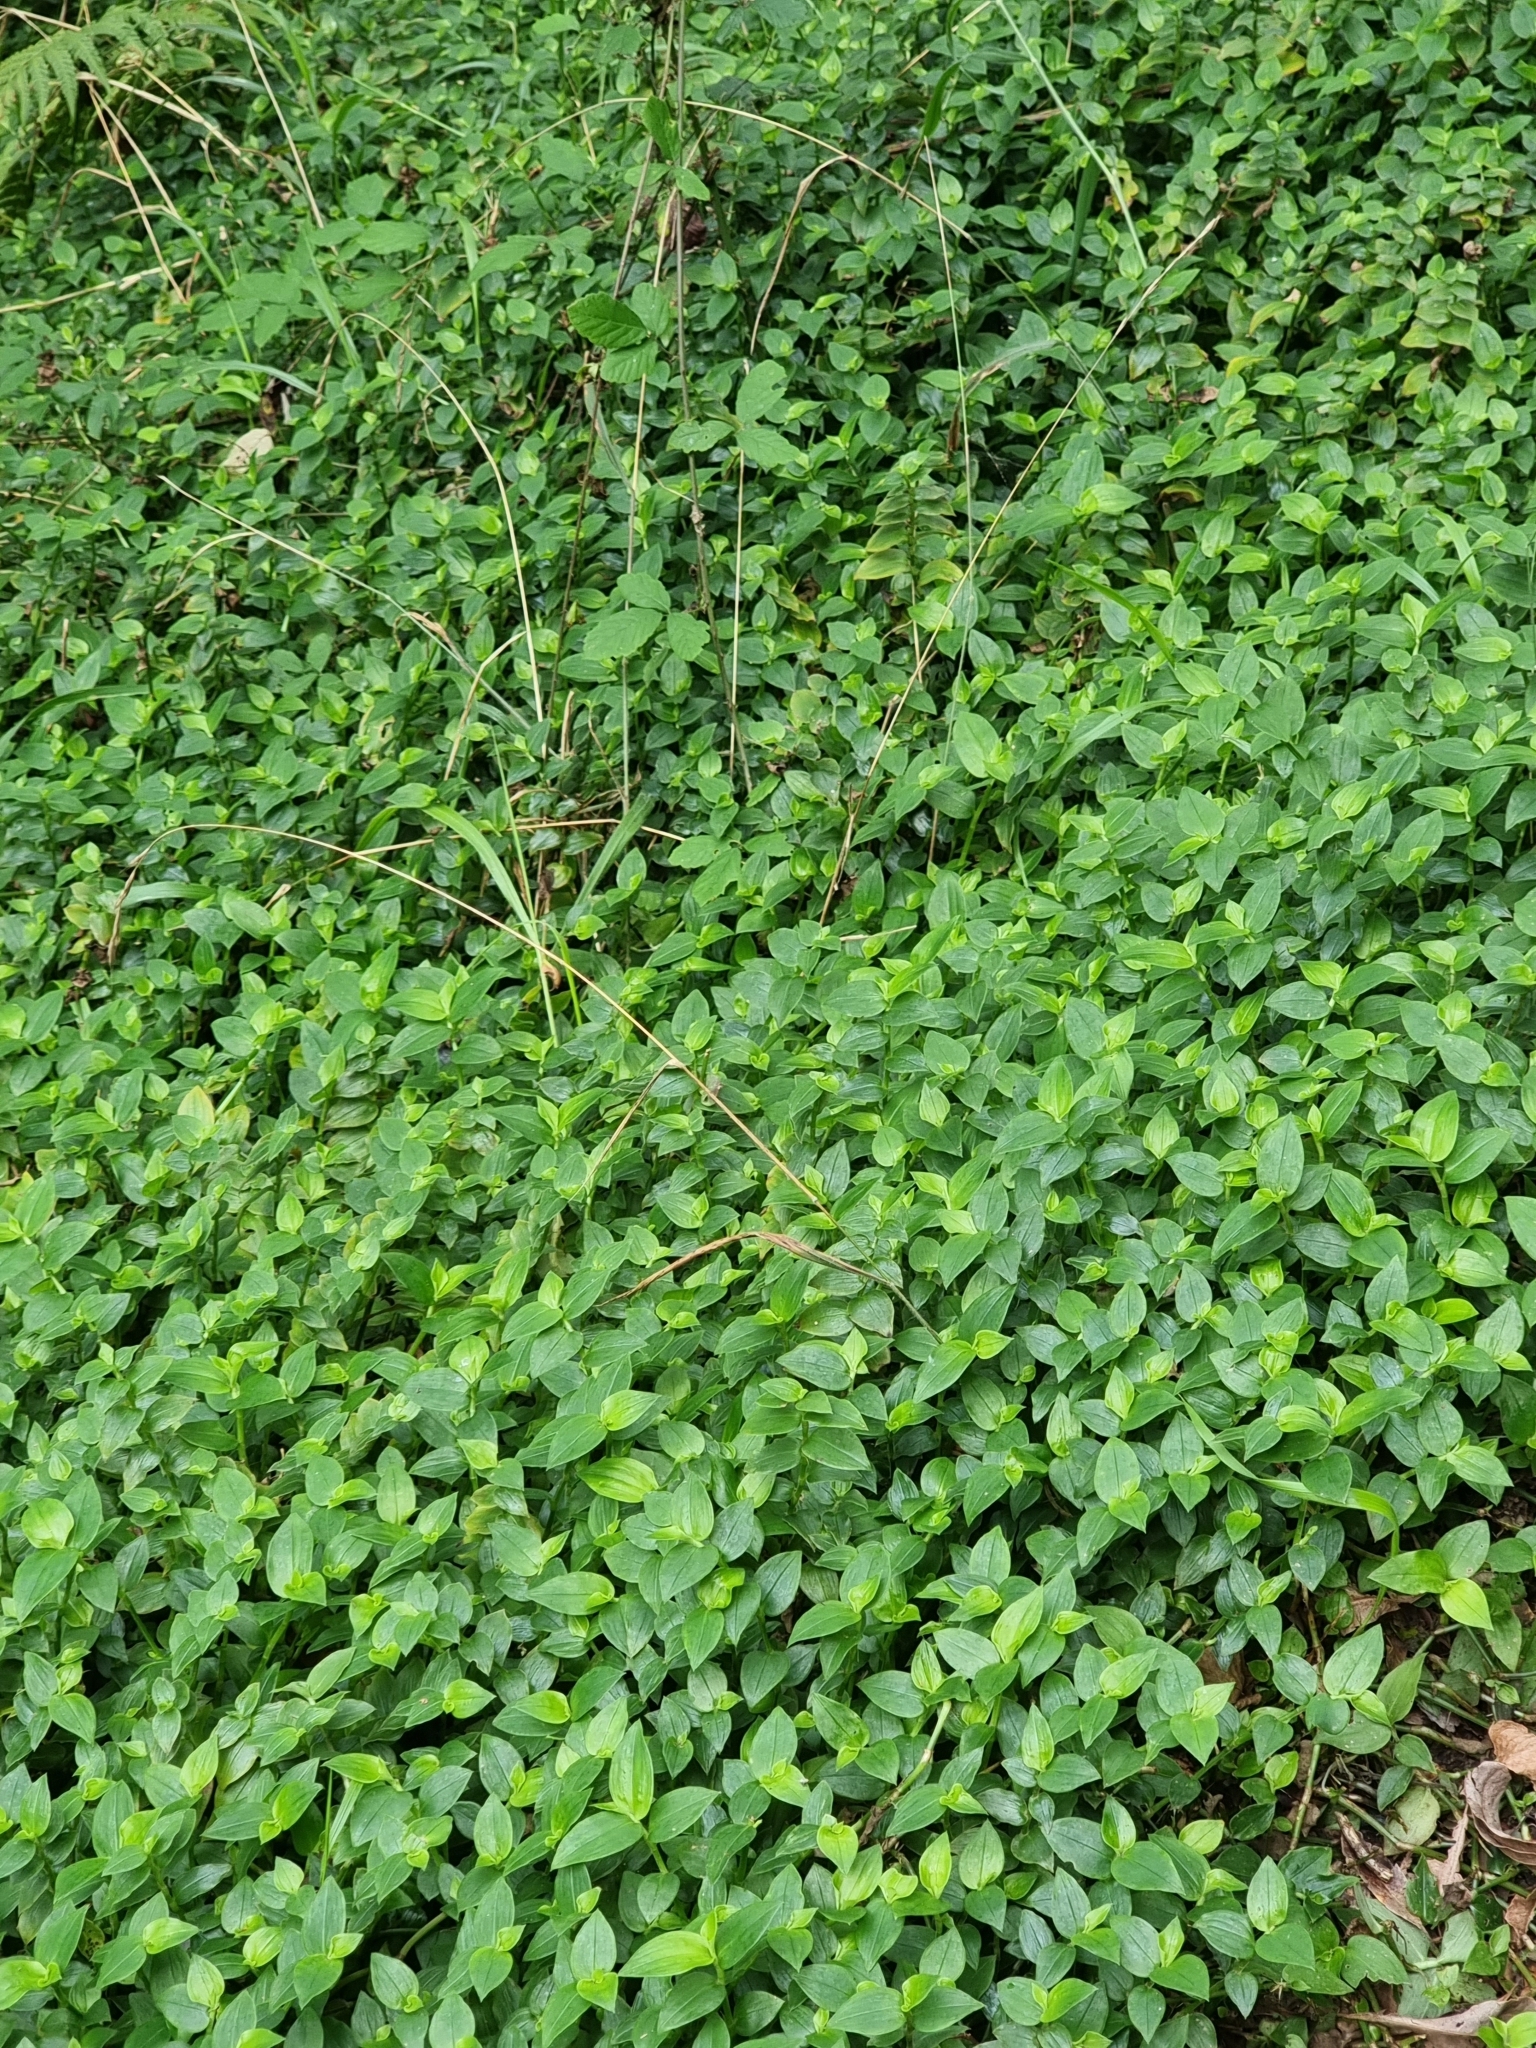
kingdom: Plantae
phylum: Tracheophyta
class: Liliopsida
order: Commelinales
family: Commelinaceae
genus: Tradescantia
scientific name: Tradescantia fluminensis
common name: Wandering-jew
